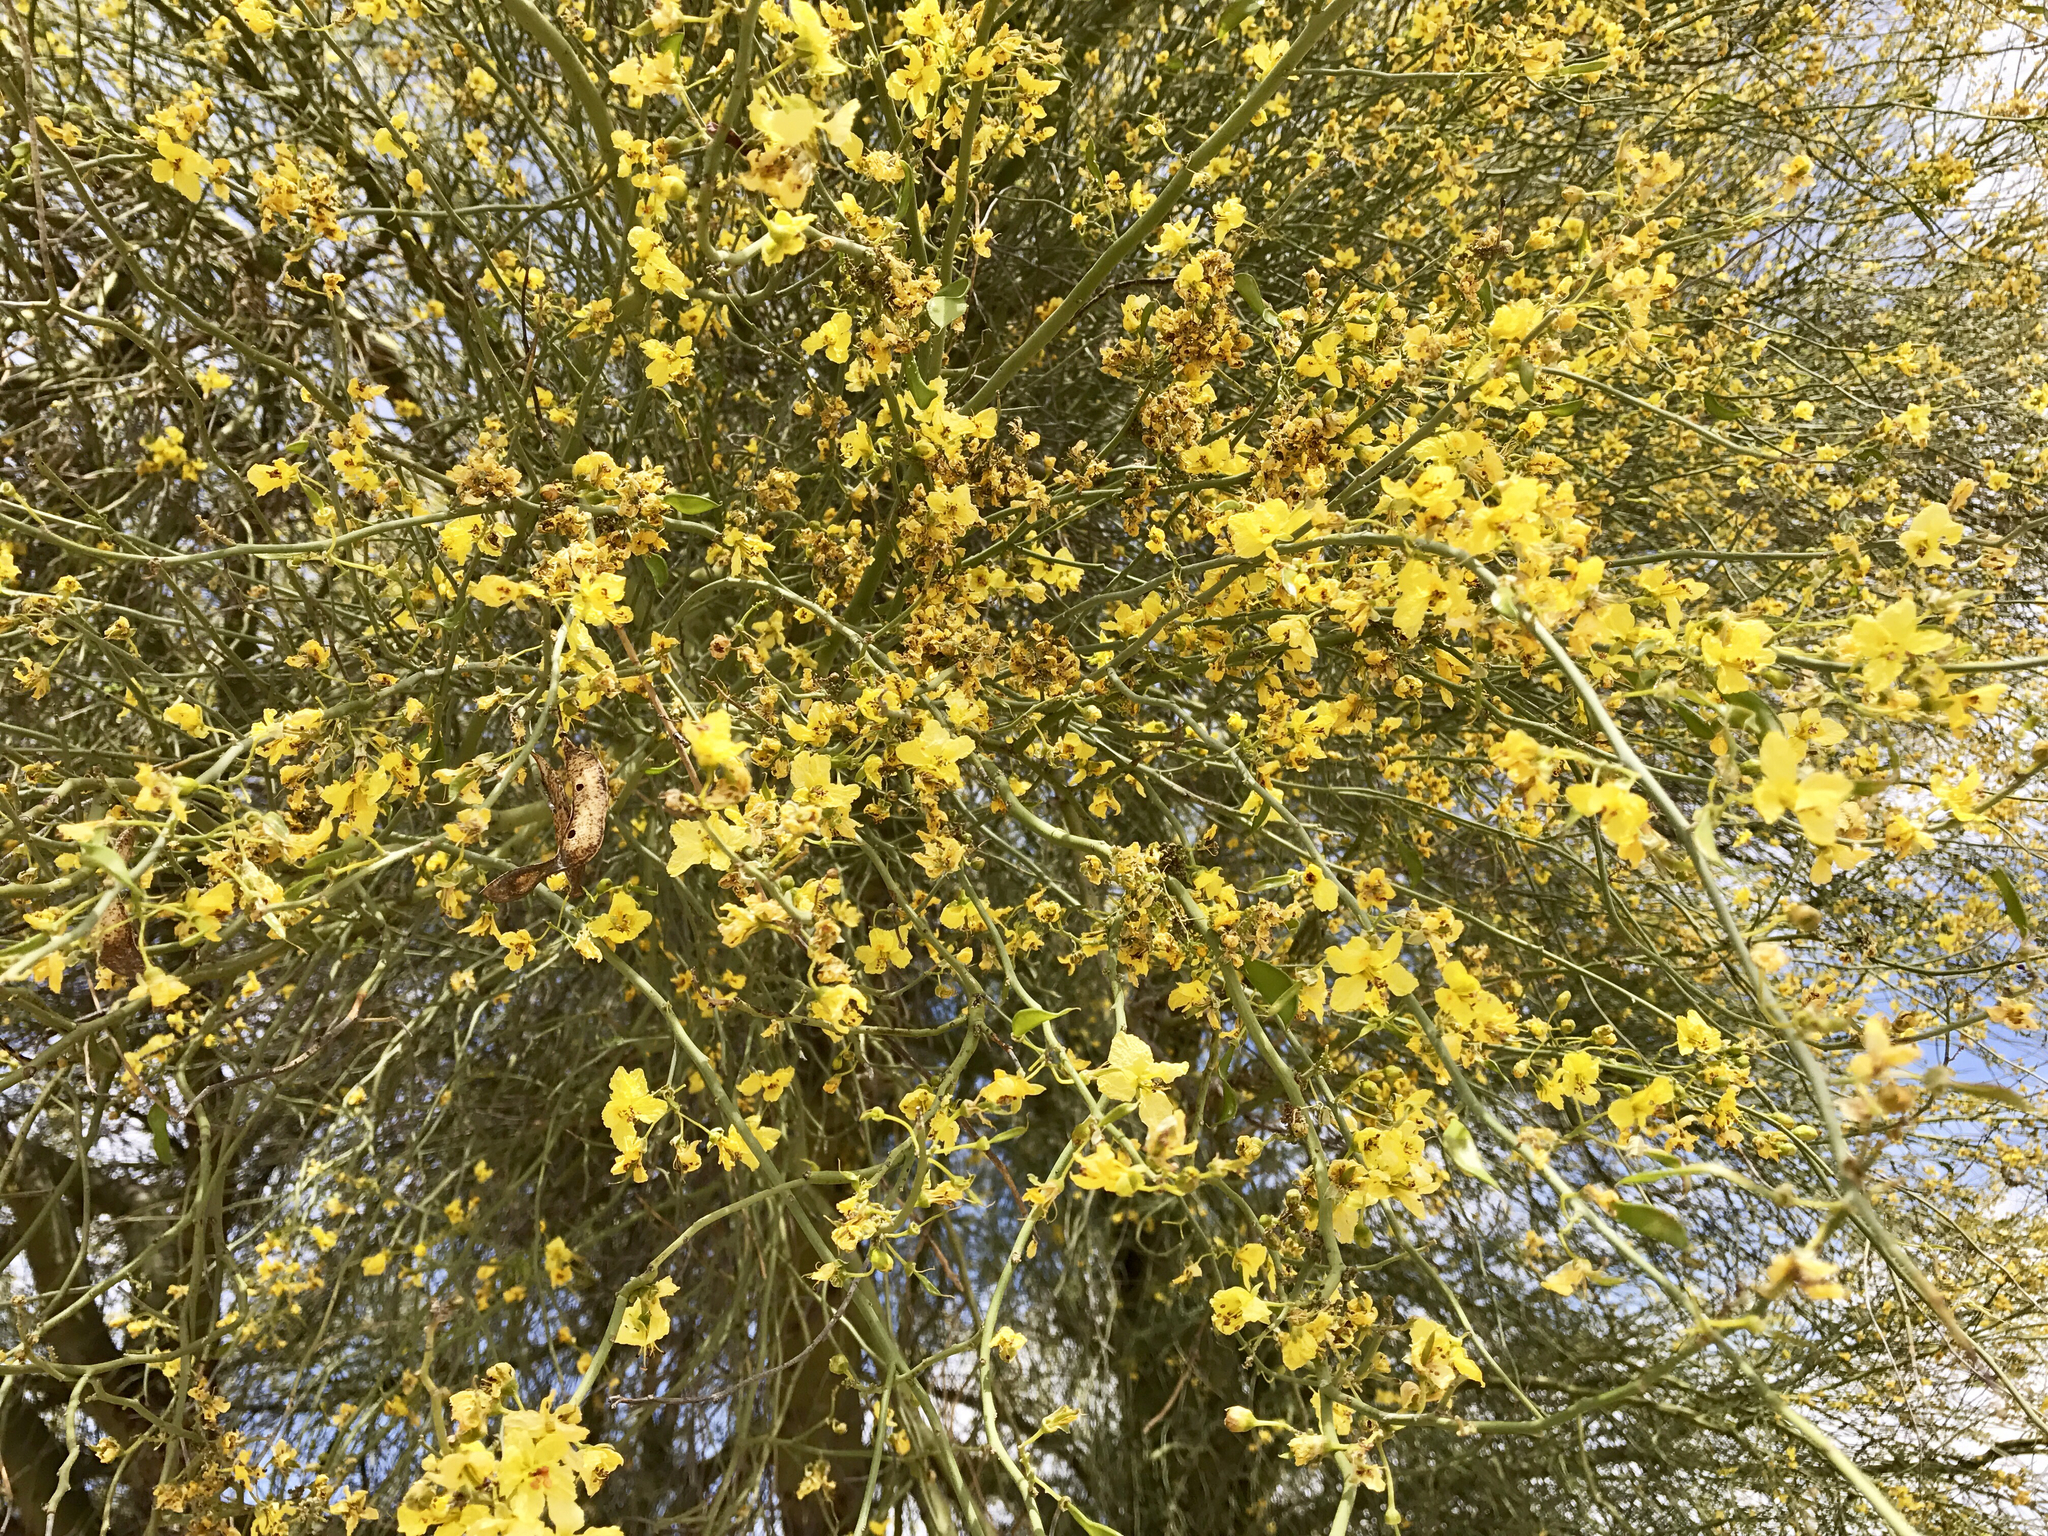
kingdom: Plantae
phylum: Tracheophyta
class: Magnoliopsida
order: Fabales
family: Fabaceae
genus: Parkinsonia
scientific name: Parkinsonia florida
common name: Blue paloverde
